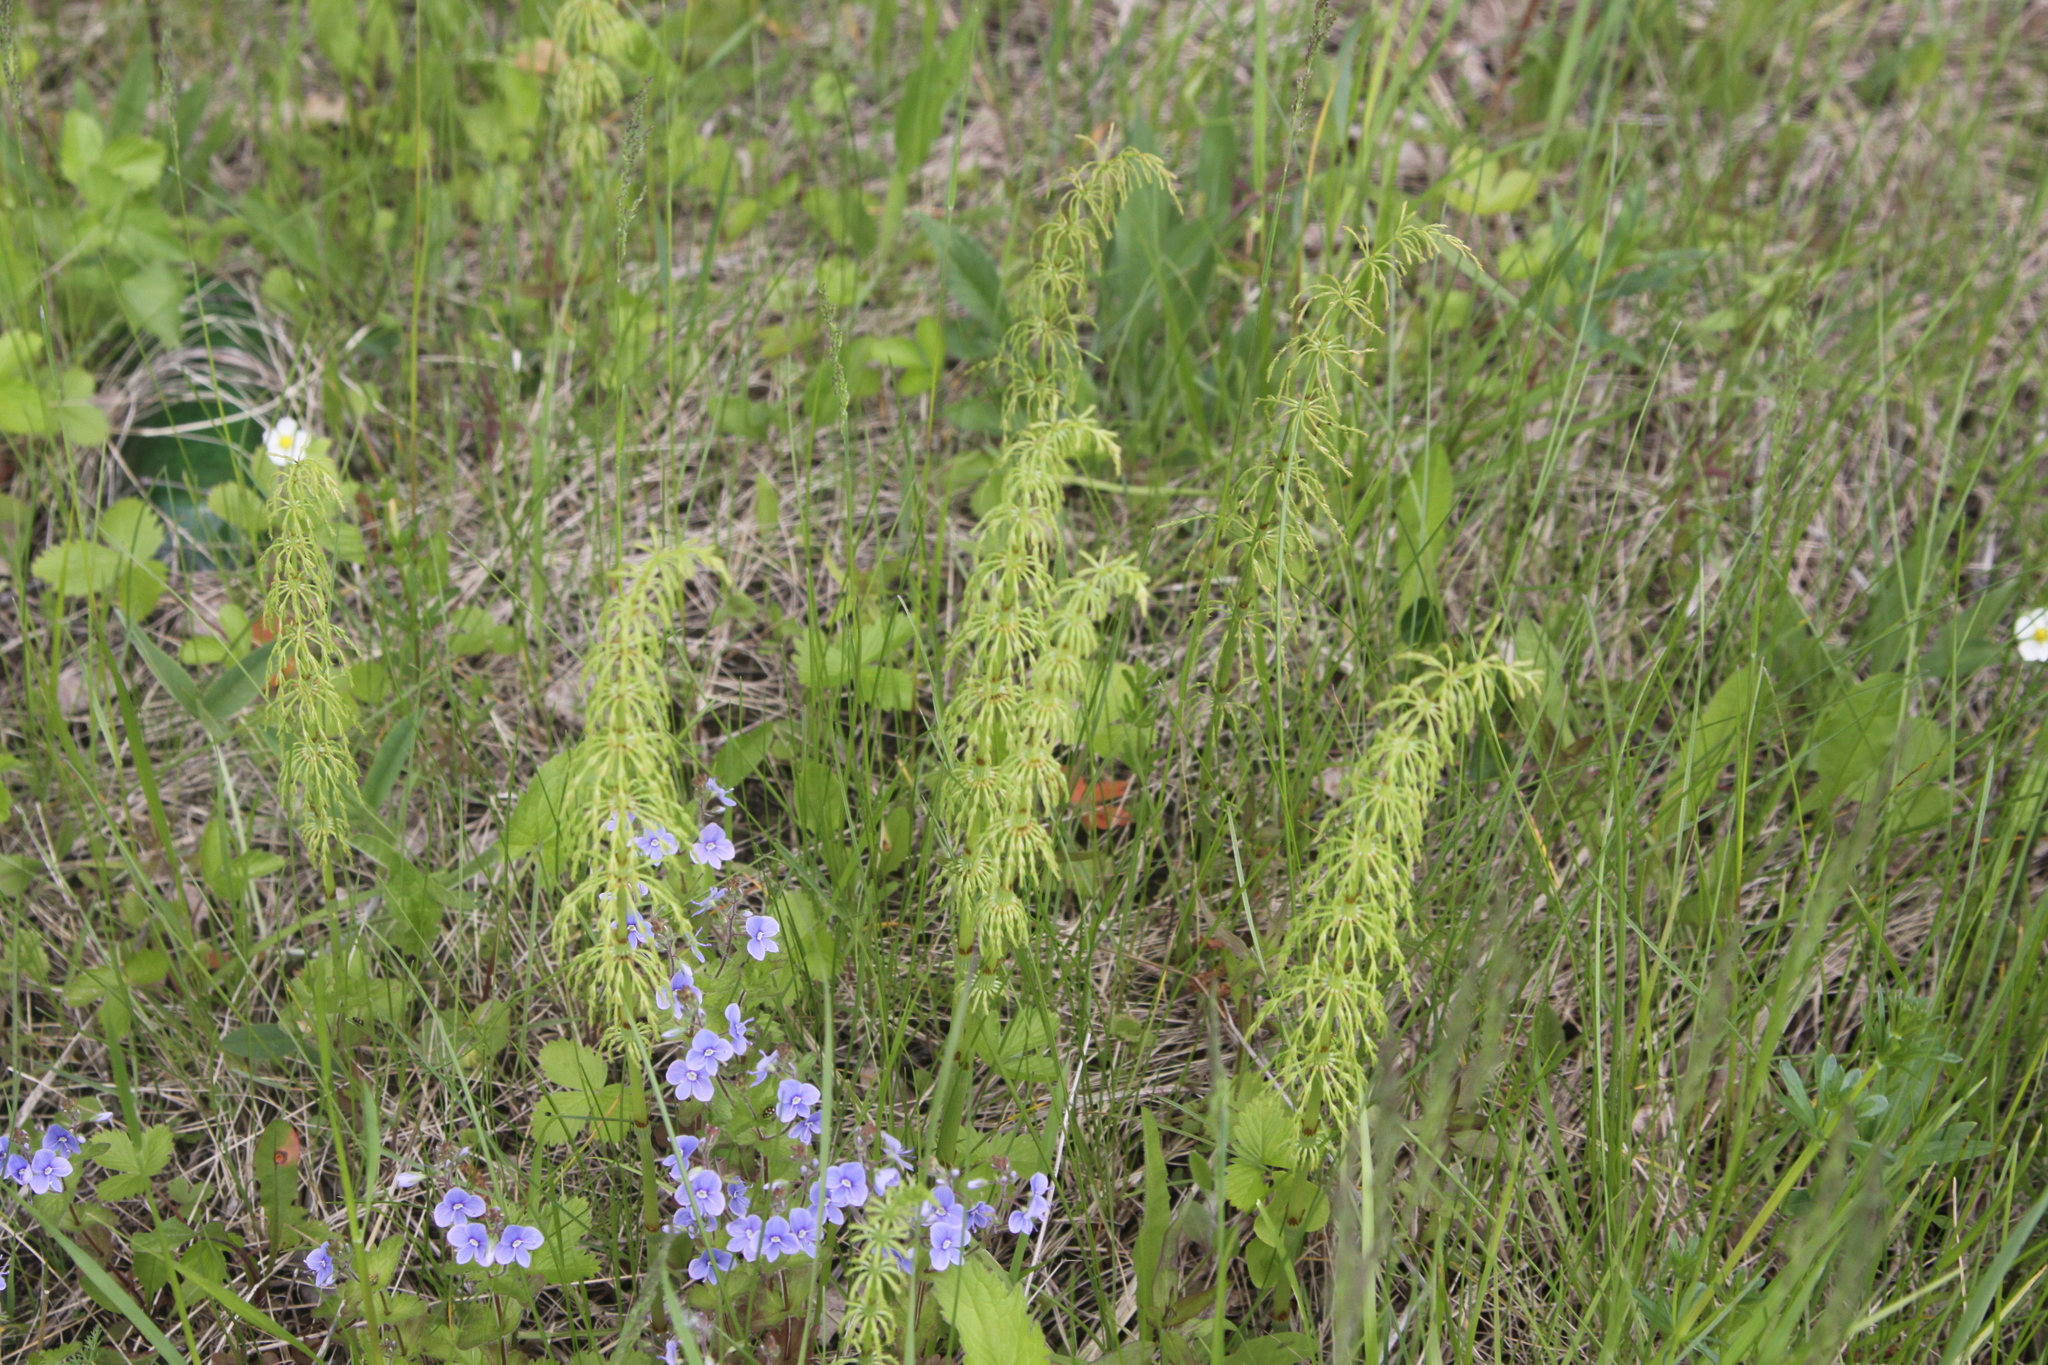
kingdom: Plantae
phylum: Tracheophyta
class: Polypodiopsida
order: Equisetales
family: Equisetaceae
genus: Equisetum
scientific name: Equisetum sylvaticum
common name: Wood horsetail
